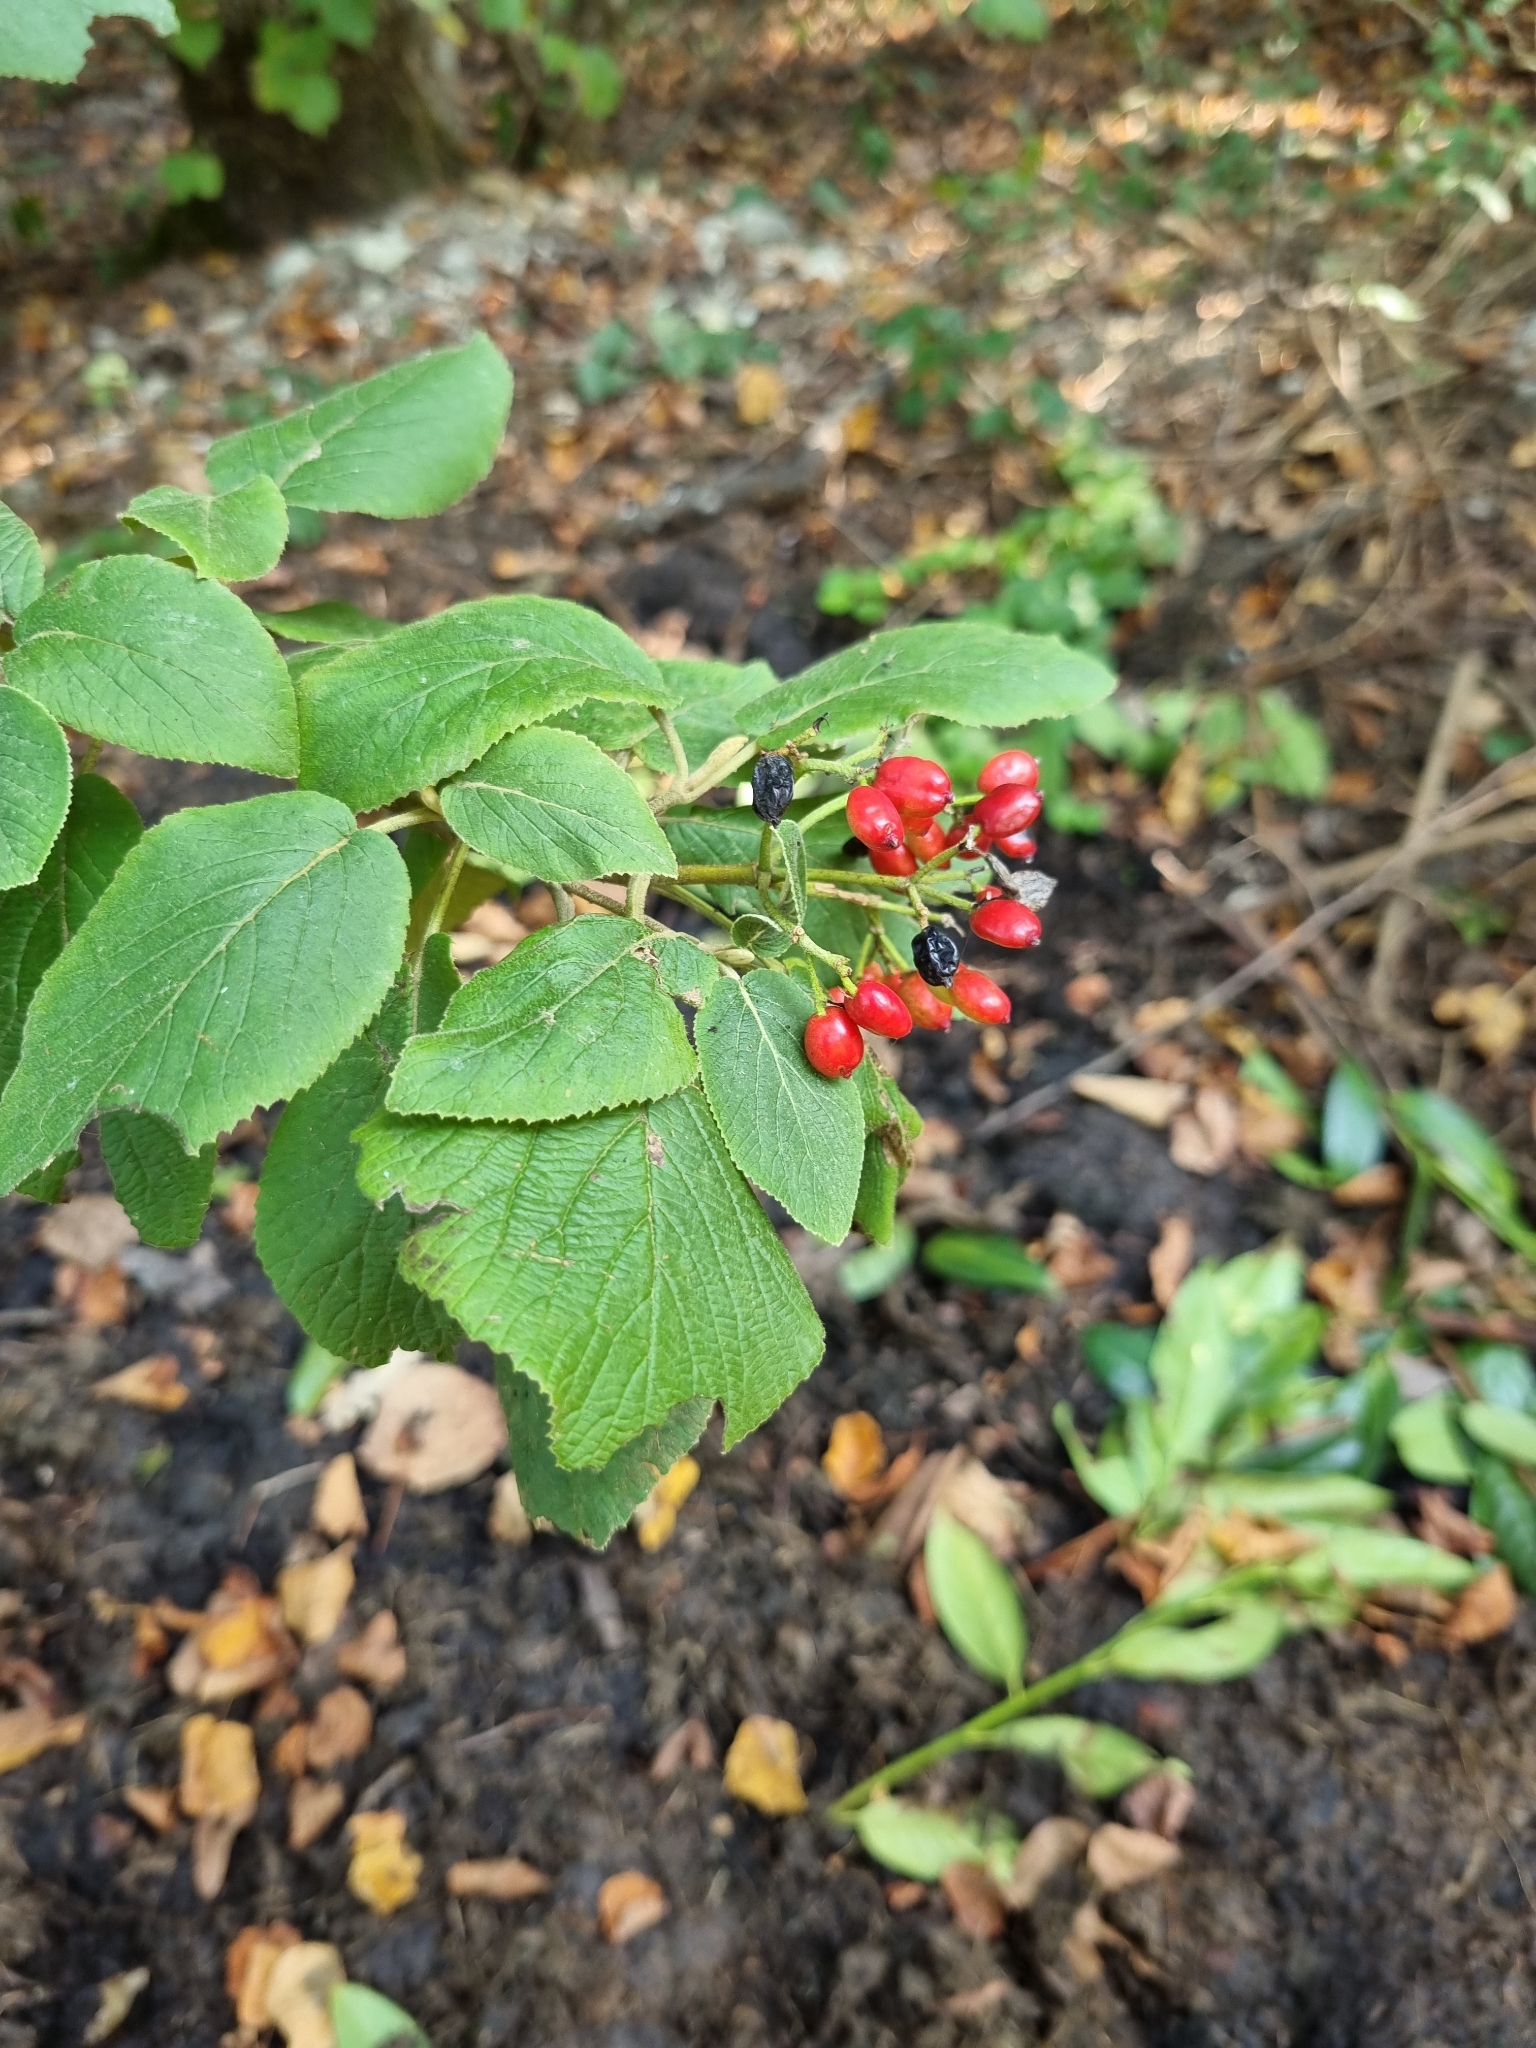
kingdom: Plantae
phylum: Tracheophyta
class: Magnoliopsida
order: Dipsacales
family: Viburnaceae
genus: Viburnum
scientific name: Viburnum lantana
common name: Wayfaring tree
